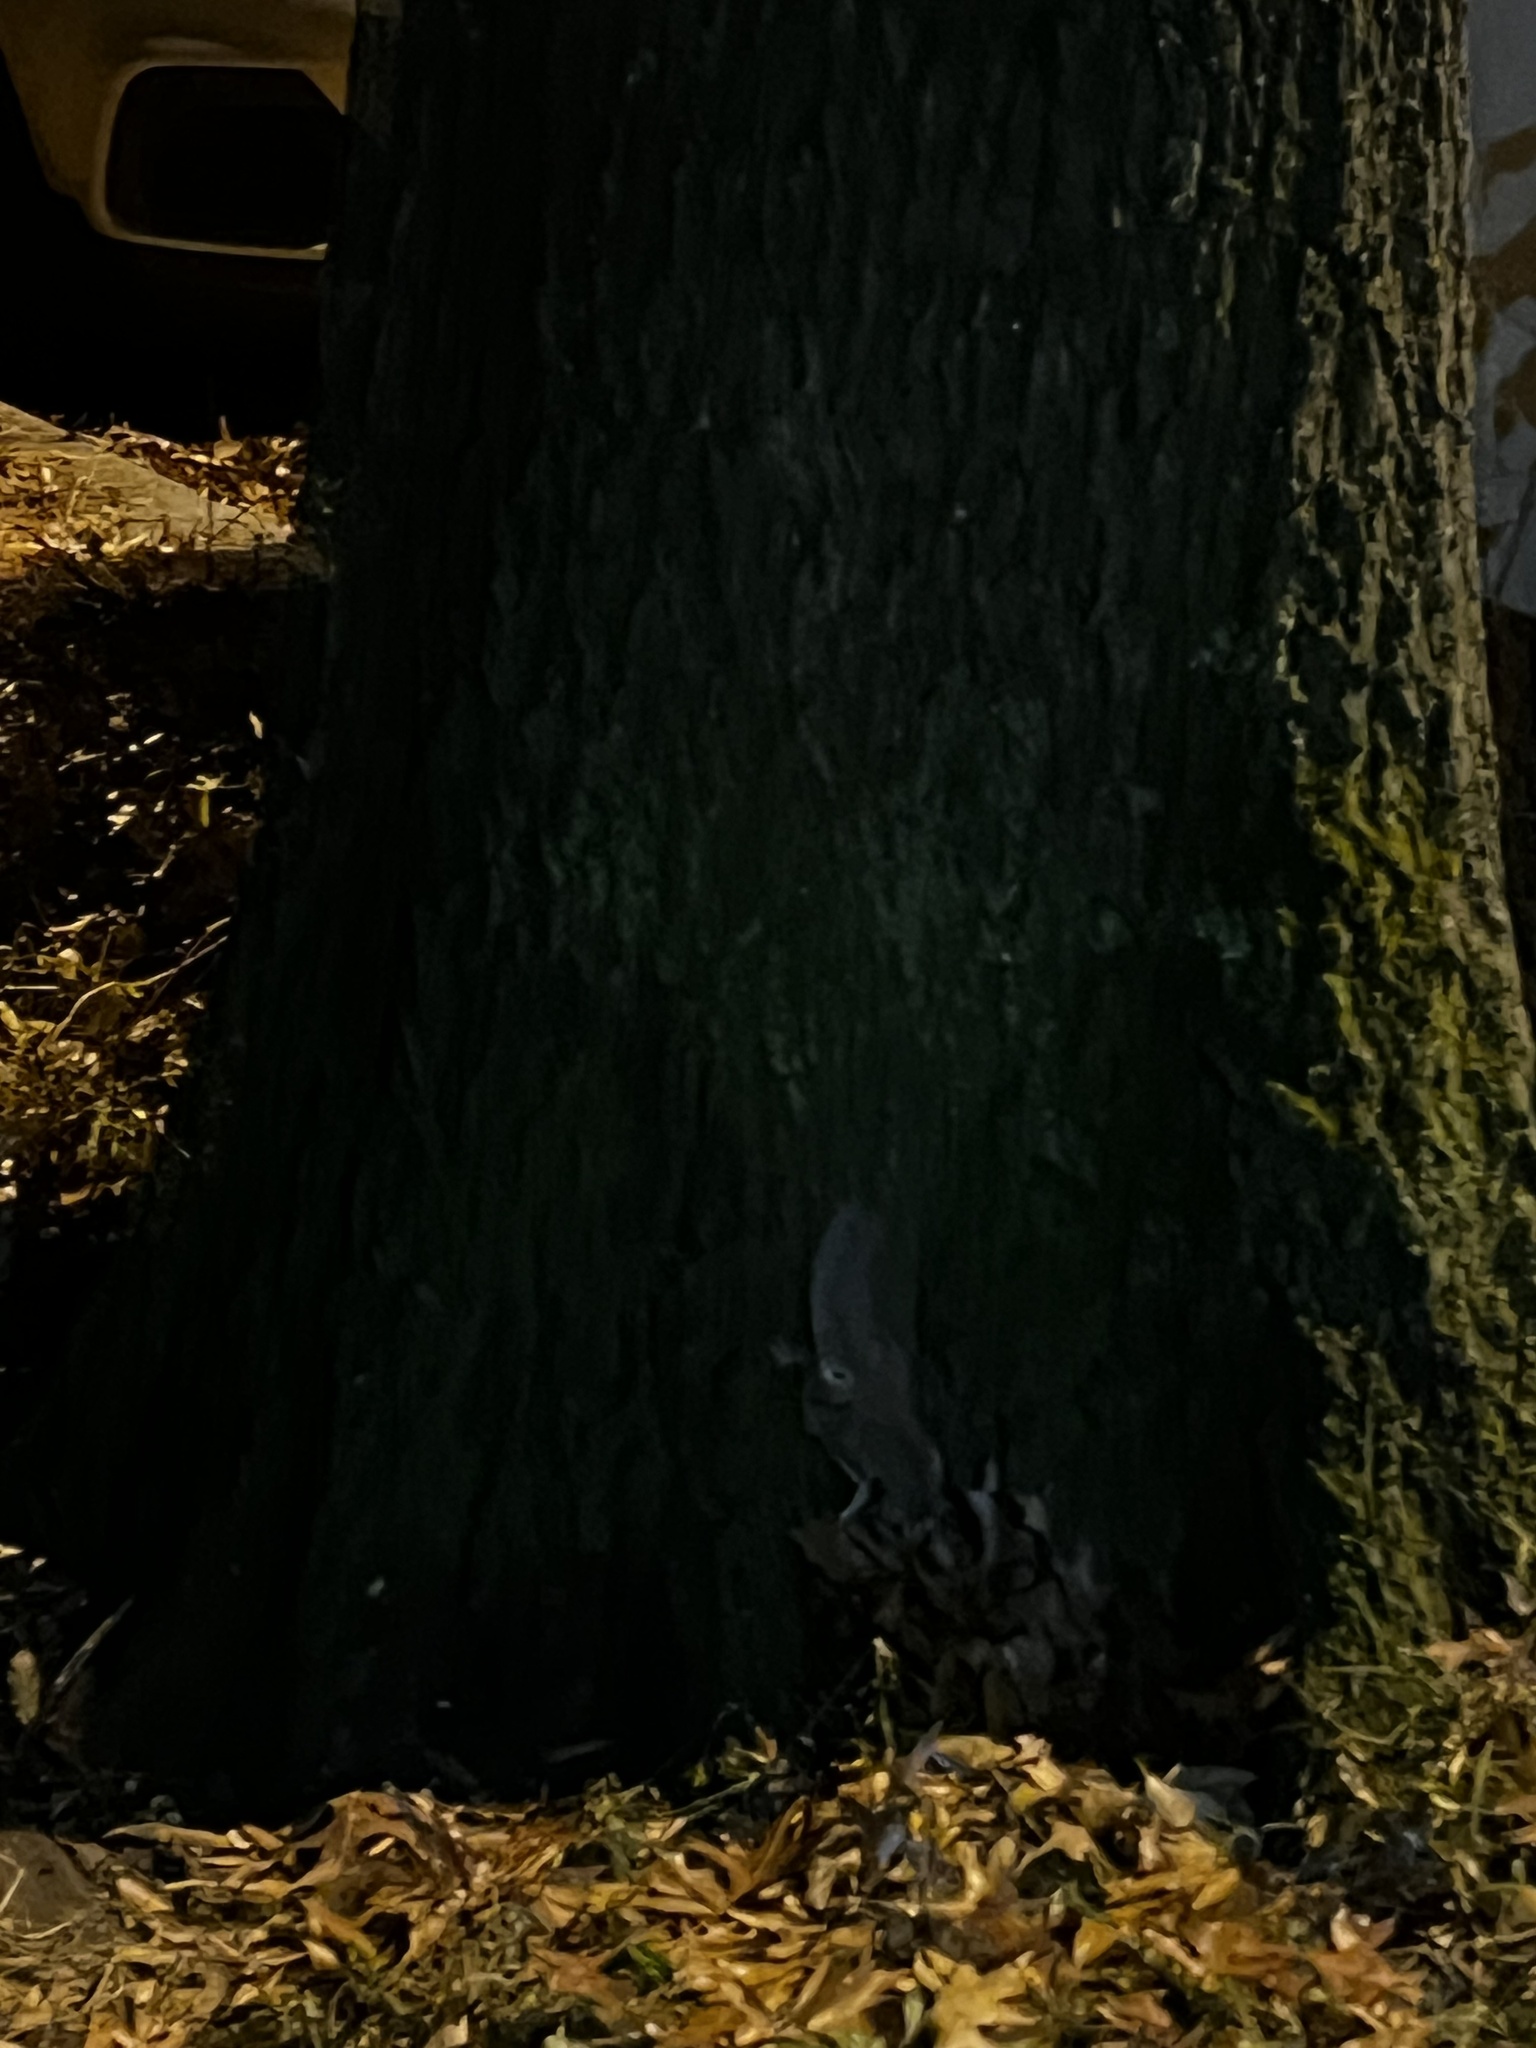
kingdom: Animalia
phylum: Chordata
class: Mammalia
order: Rodentia
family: Sciuridae
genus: Glaucomys
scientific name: Glaucomys volans
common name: Southern flying squirrel
